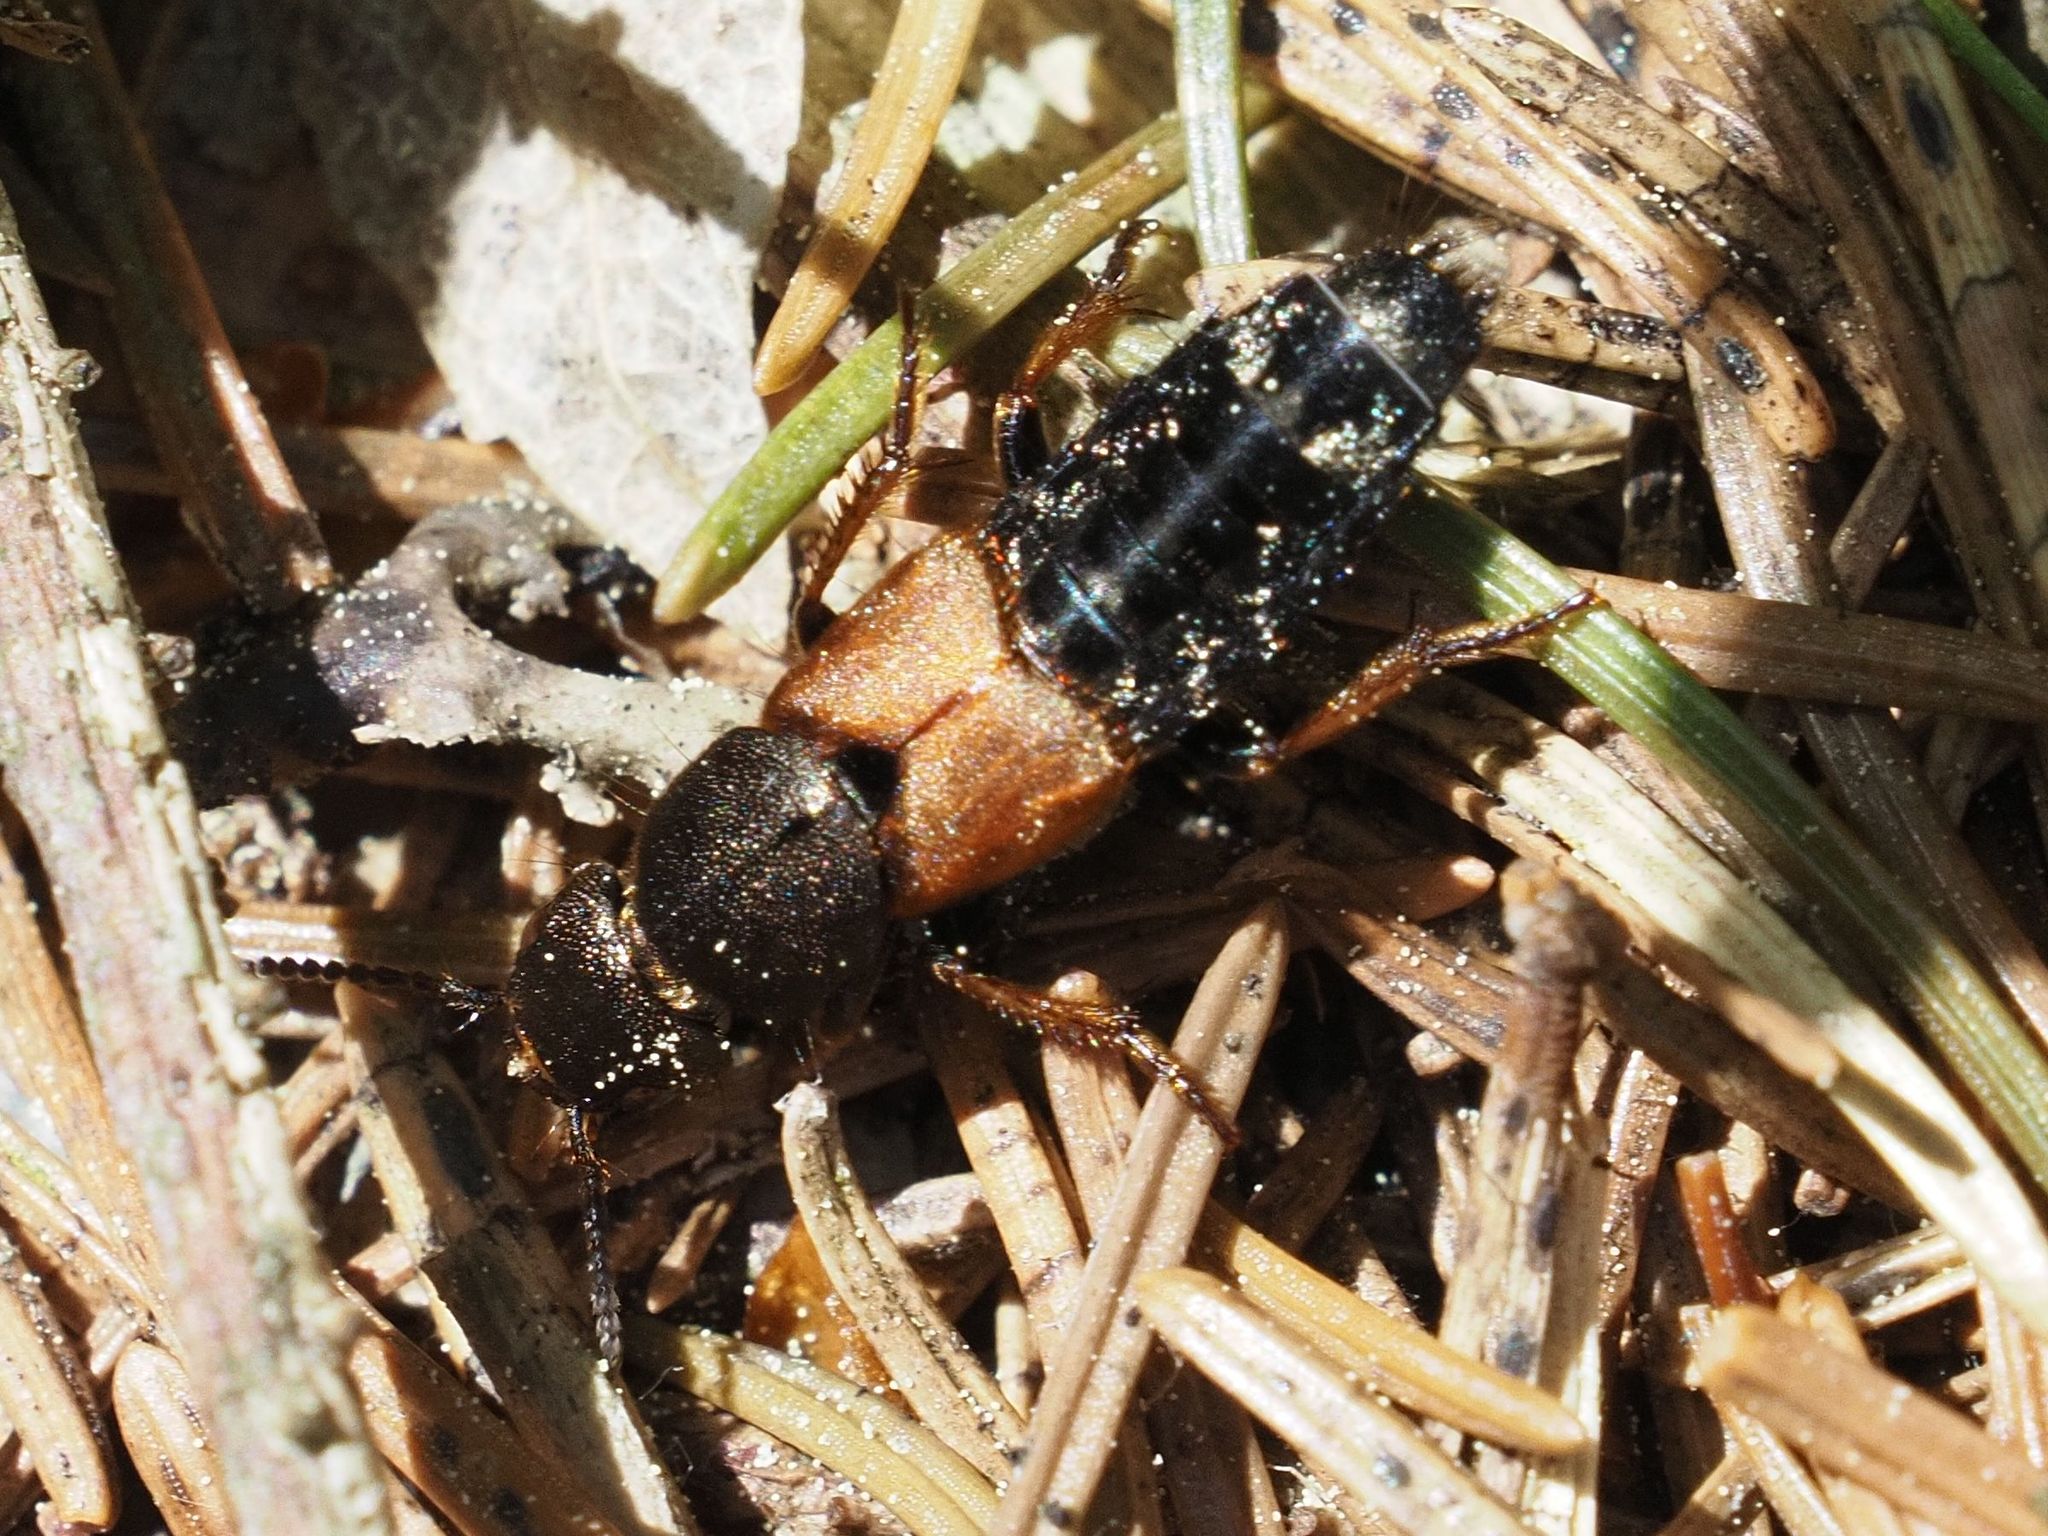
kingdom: Animalia
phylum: Arthropoda
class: Insecta
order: Coleoptera
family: Staphylinidae
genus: Platydracus
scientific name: Platydracus chalcocephalus
